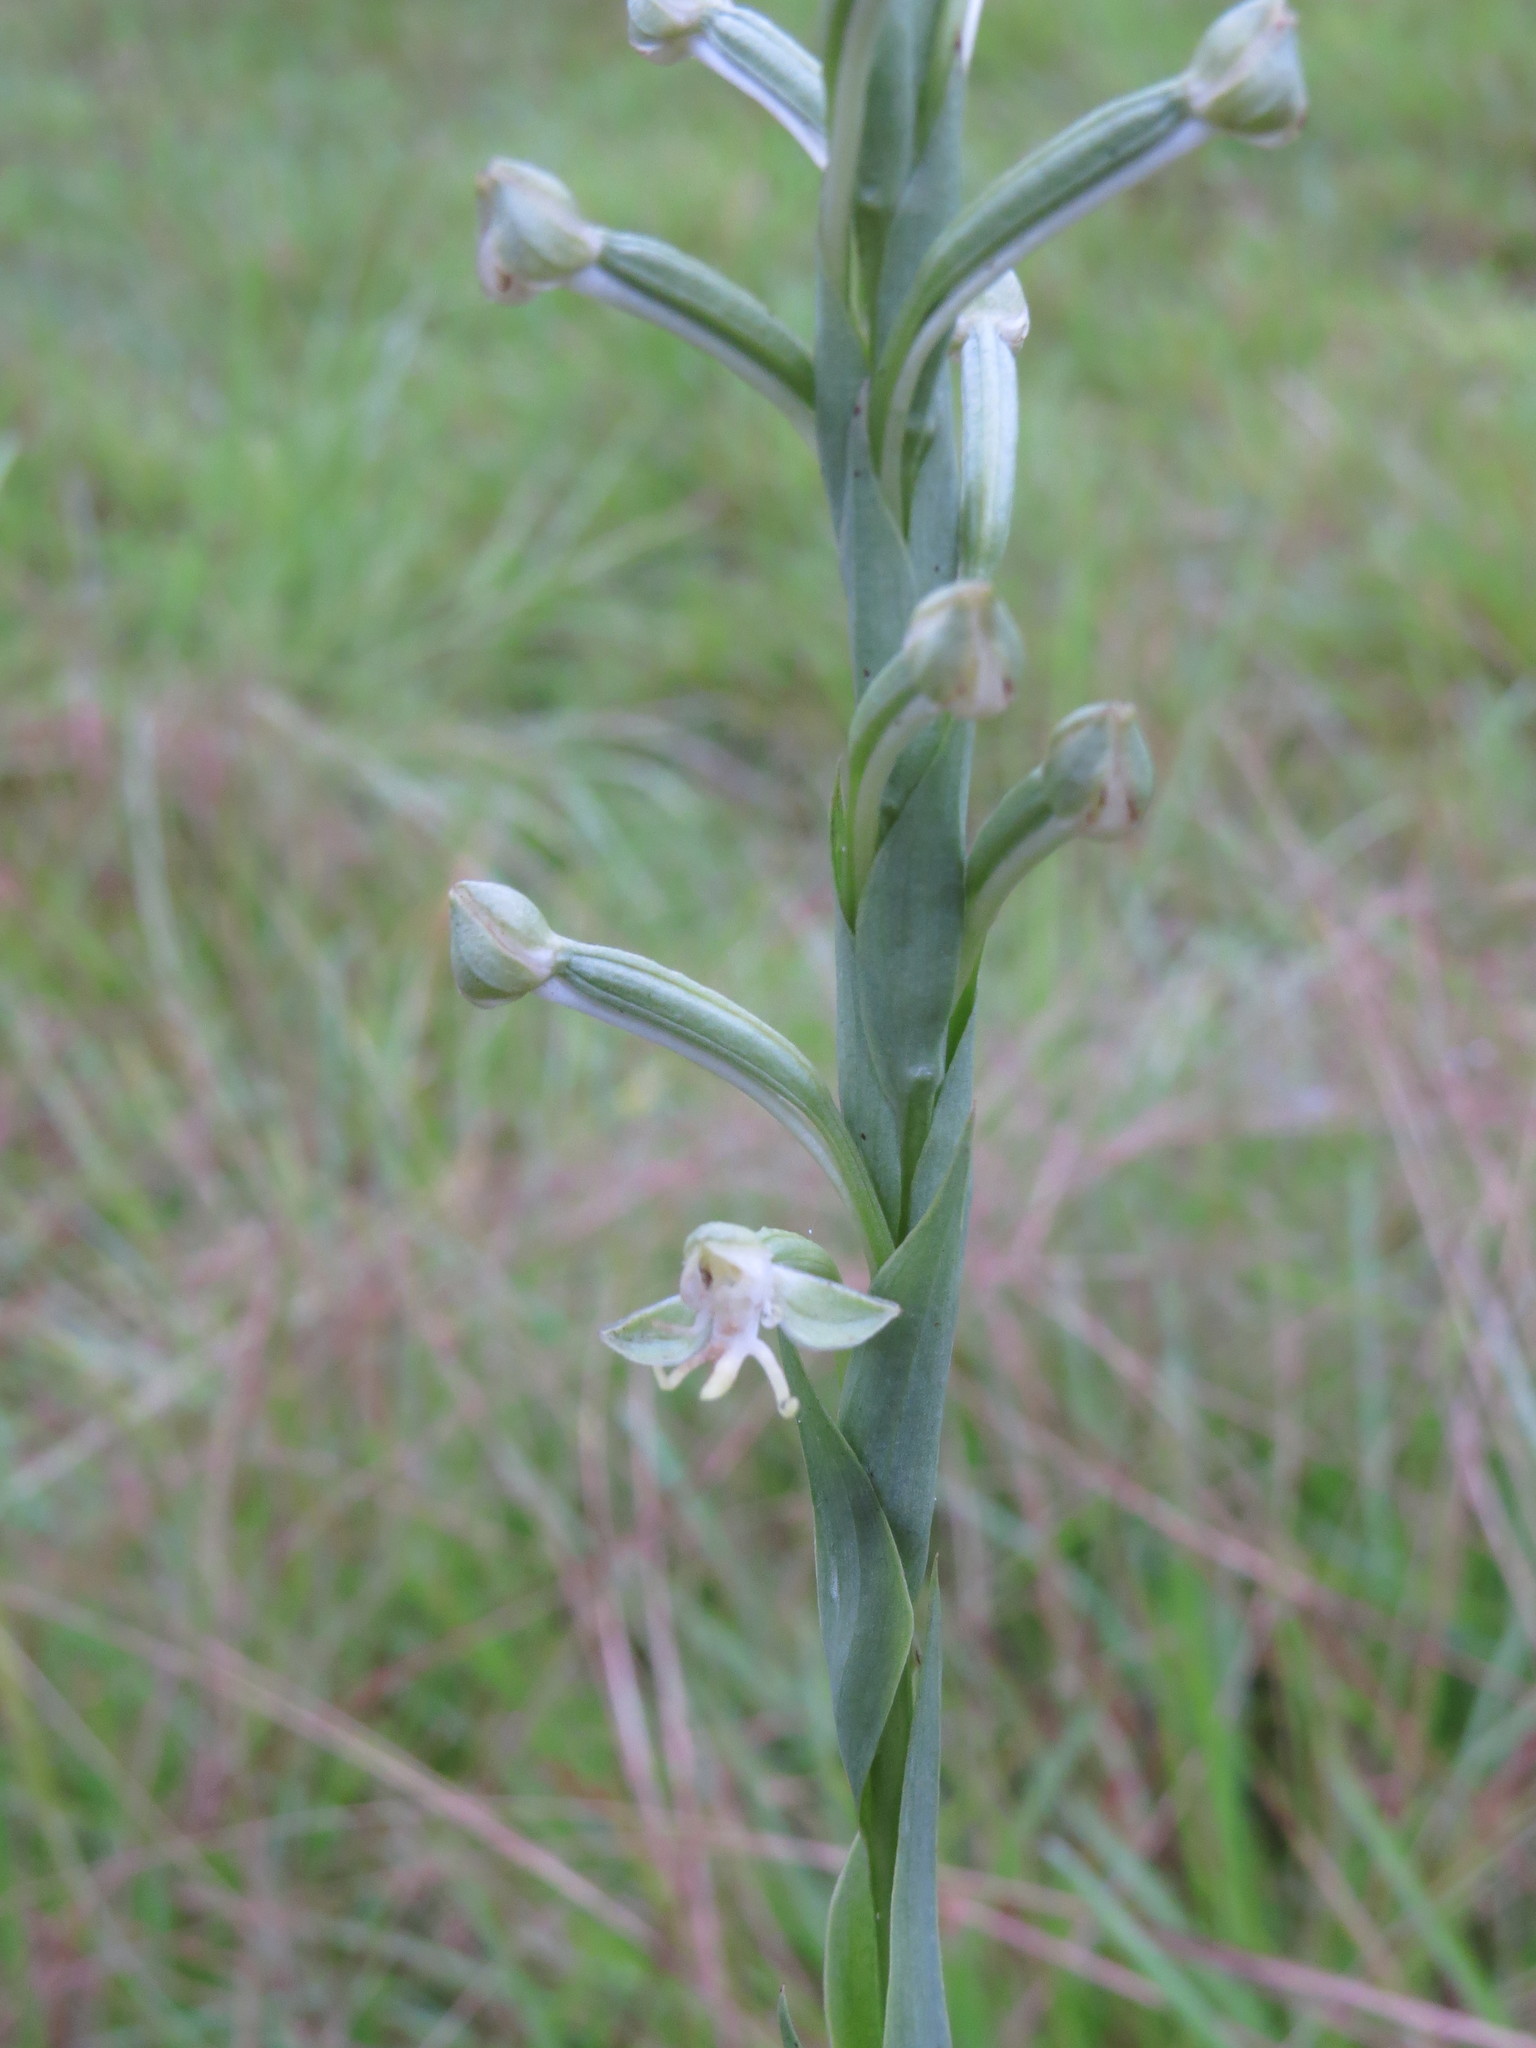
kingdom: Plantae
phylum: Tracheophyta
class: Liliopsida
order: Asparagales
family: Orchidaceae
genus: Habenaria
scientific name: Habenaria longipedicellata
